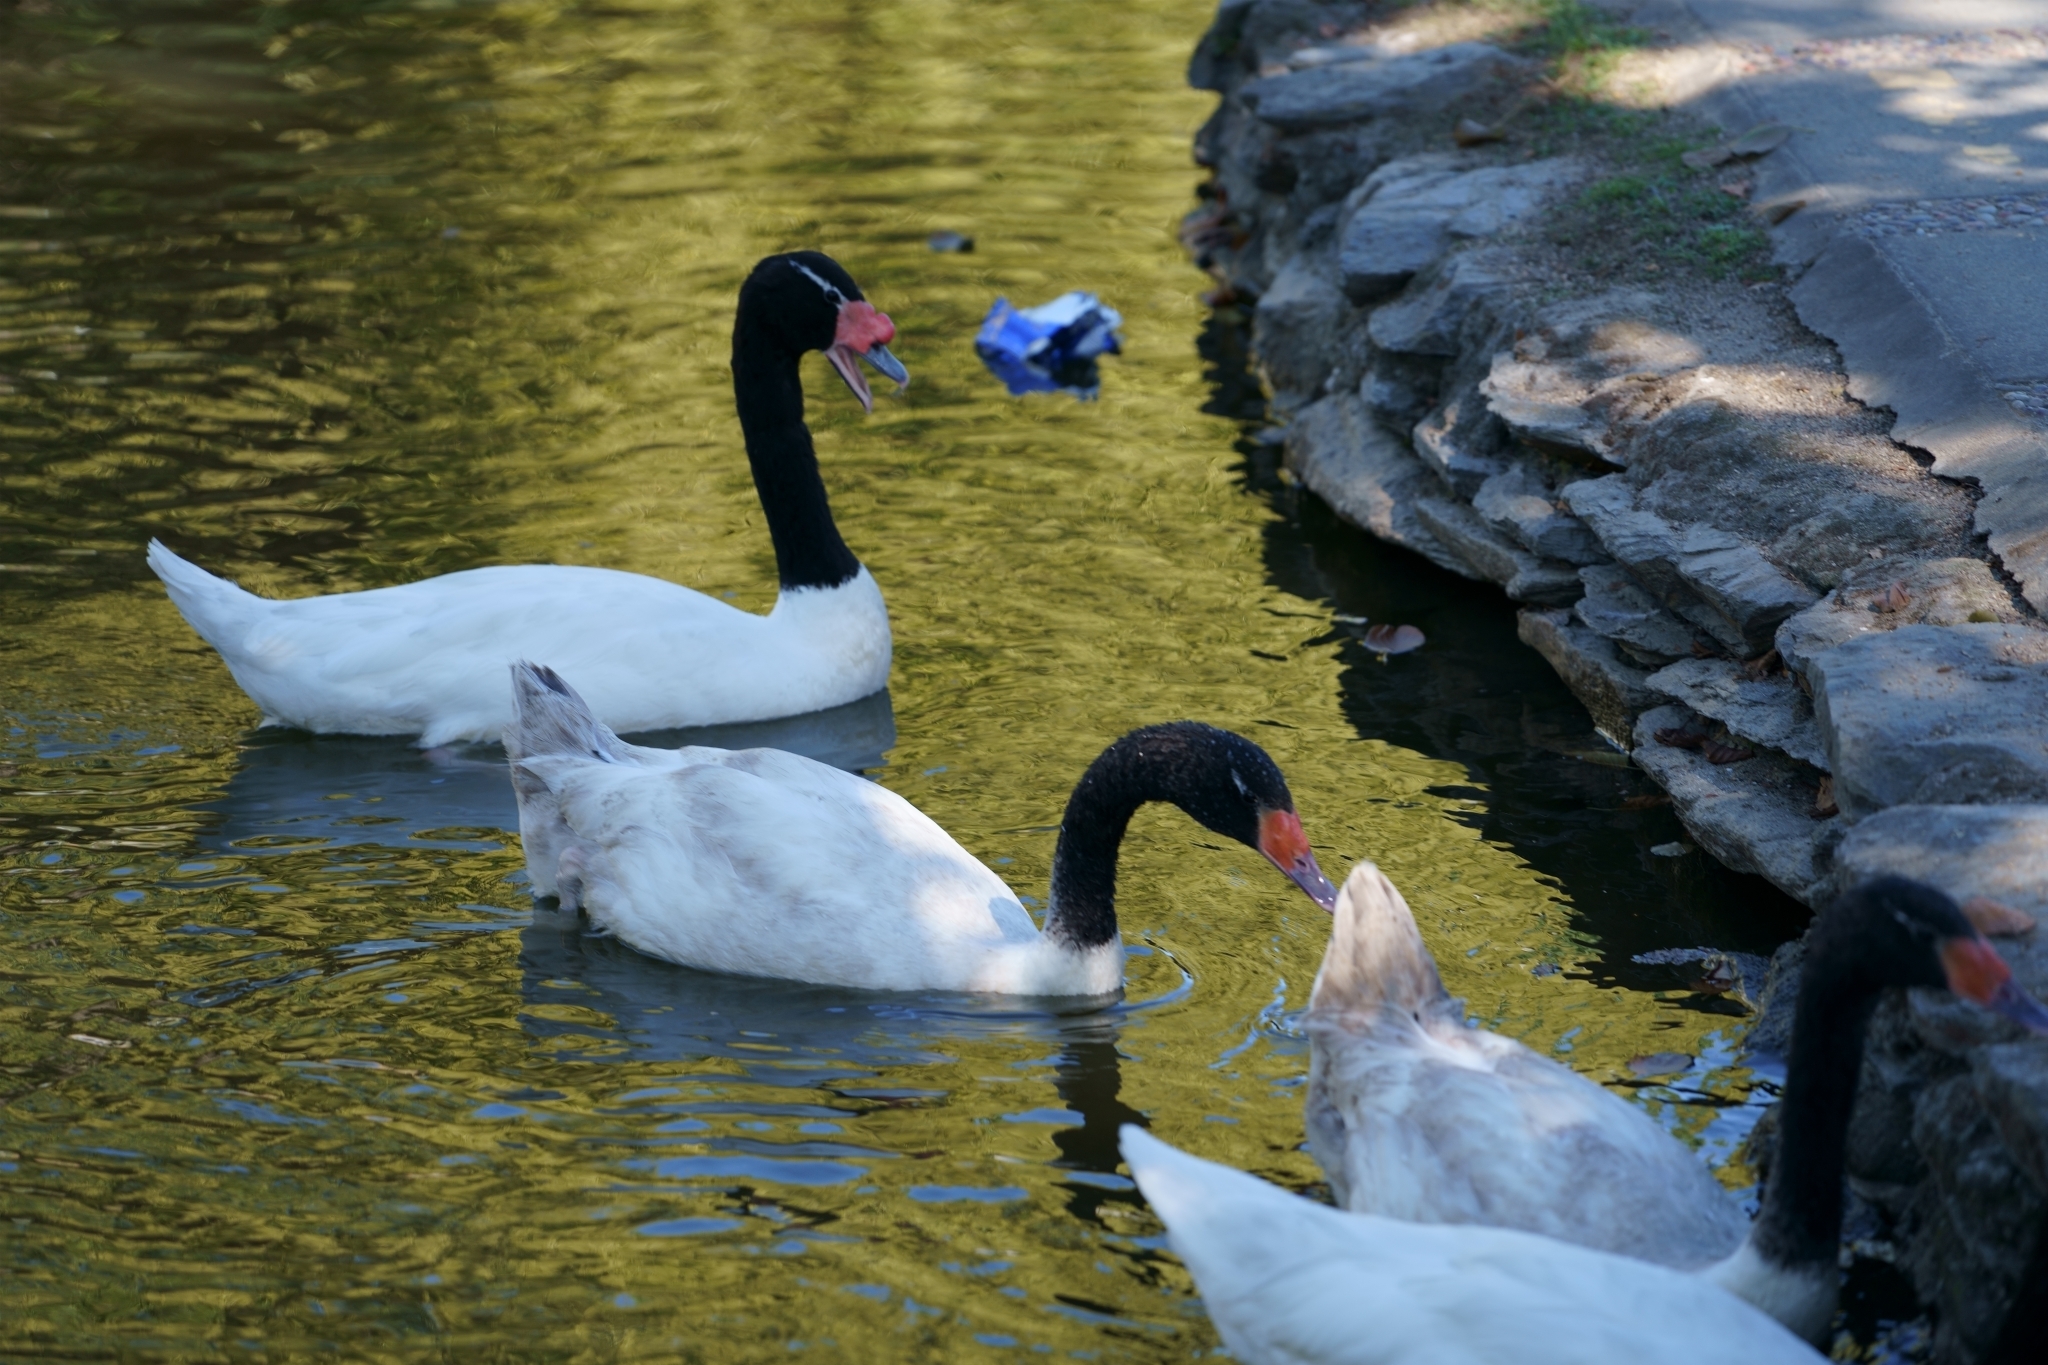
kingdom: Animalia
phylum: Chordata
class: Aves
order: Anseriformes
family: Anatidae
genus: Cygnus
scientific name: Cygnus melancoryphus
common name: Black-necked swan
